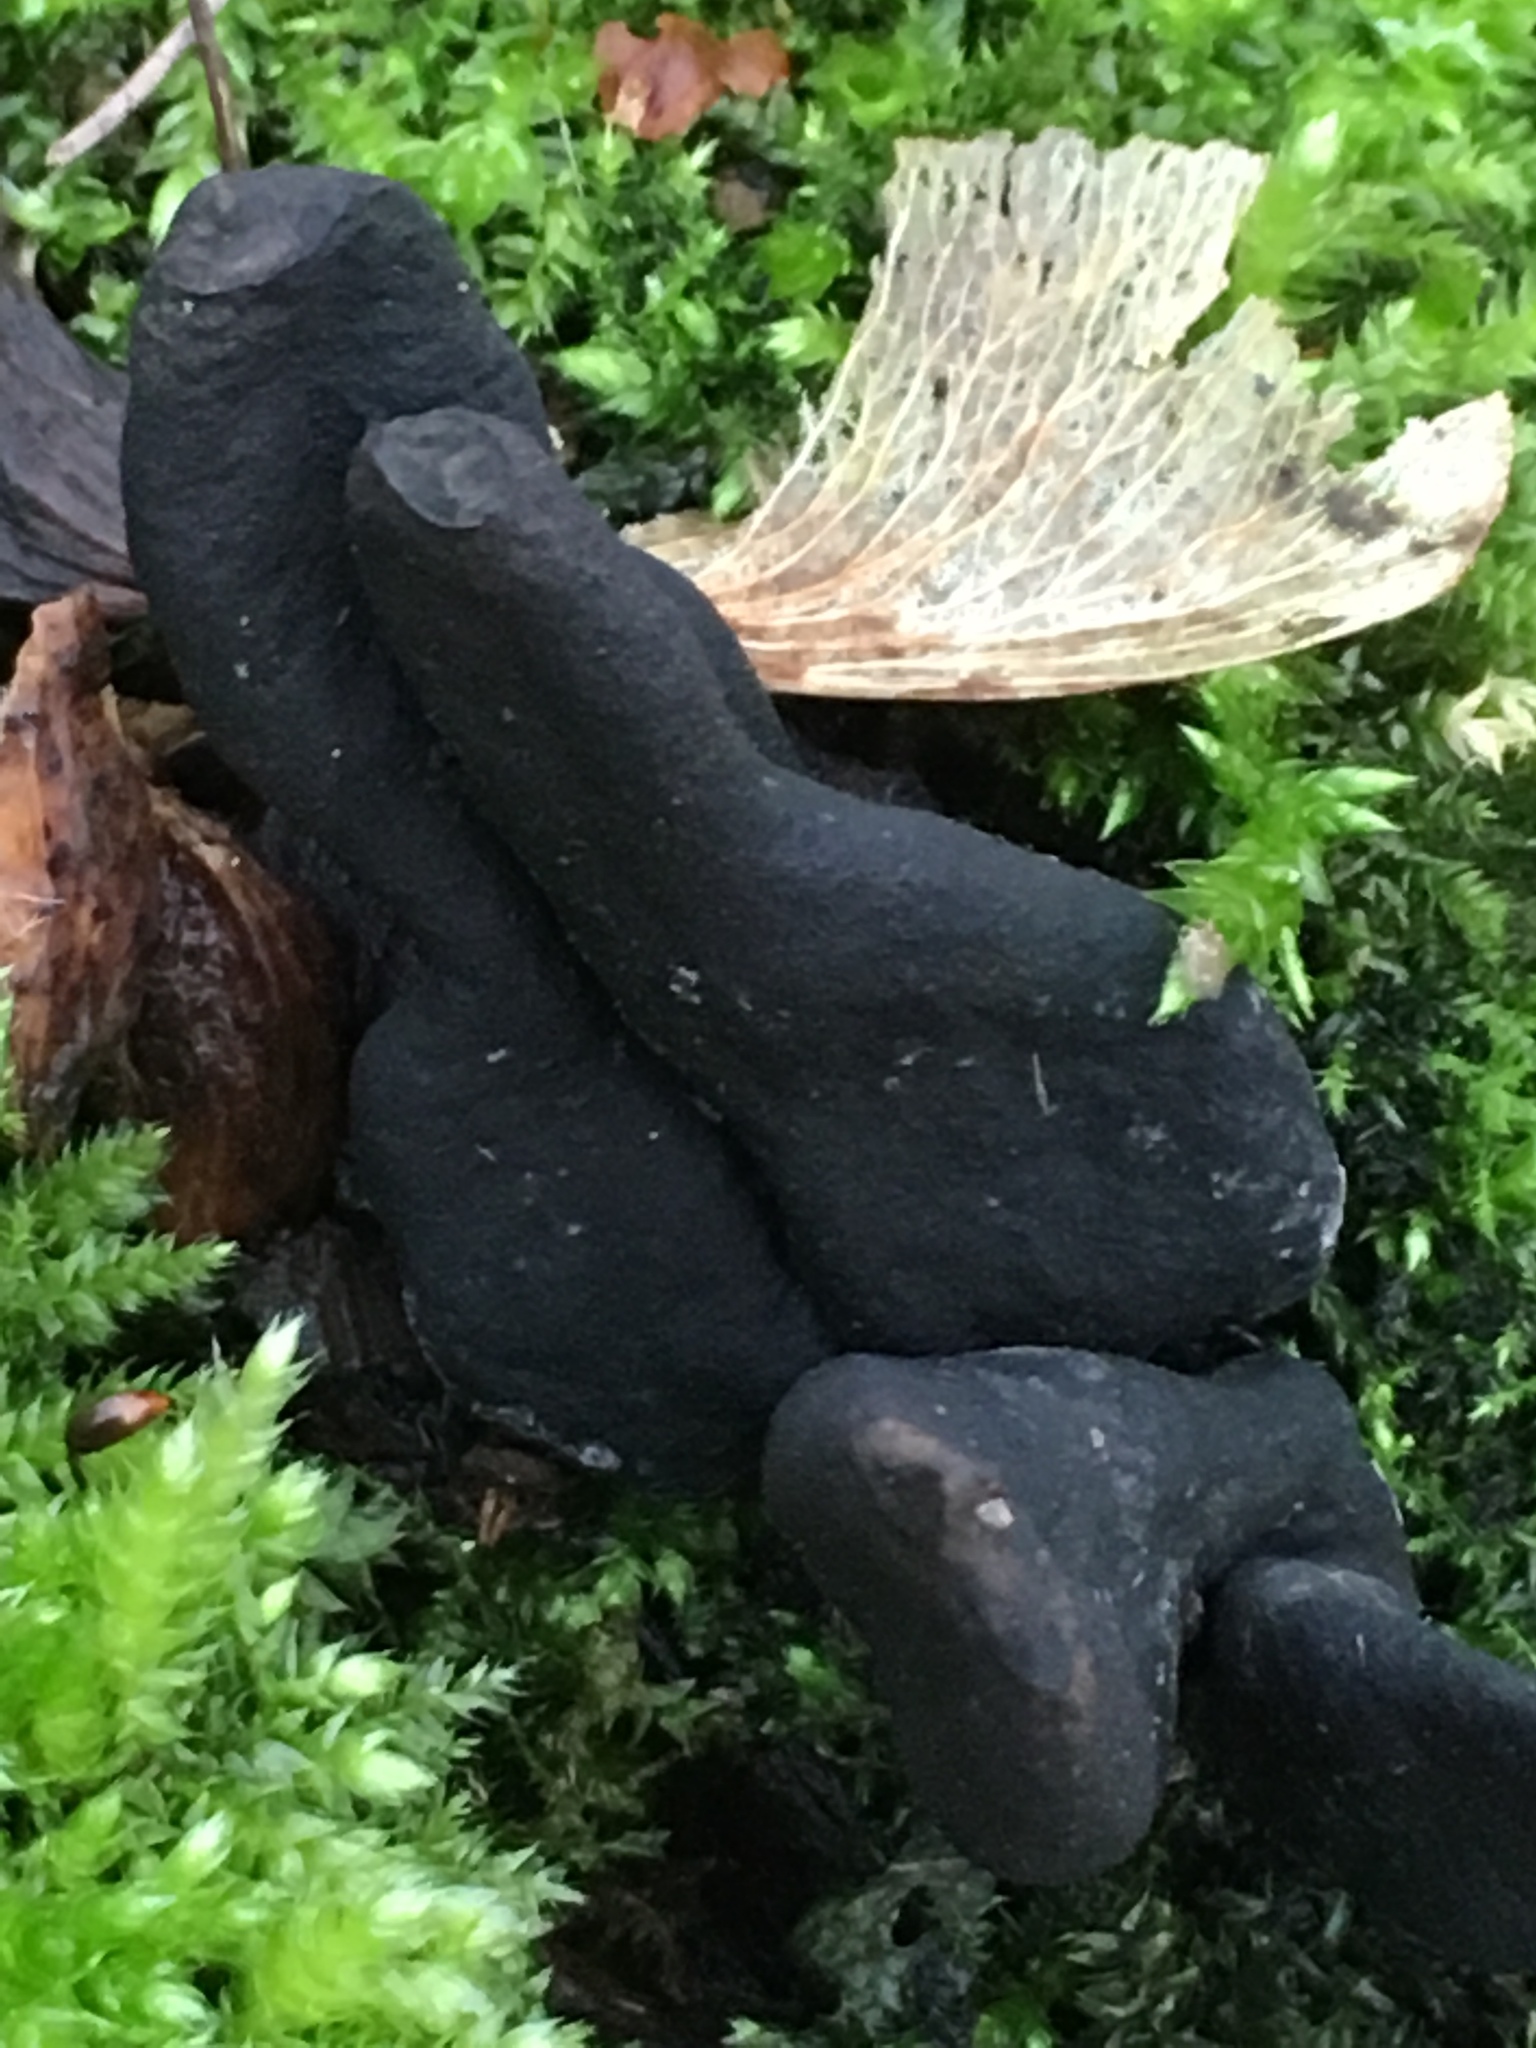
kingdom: Fungi
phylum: Ascomycota
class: Sordariomycetes
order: Xylariales
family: Xylariaceae
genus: Xylaria
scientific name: Xylaria polymorpha
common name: Dead man's fingers
